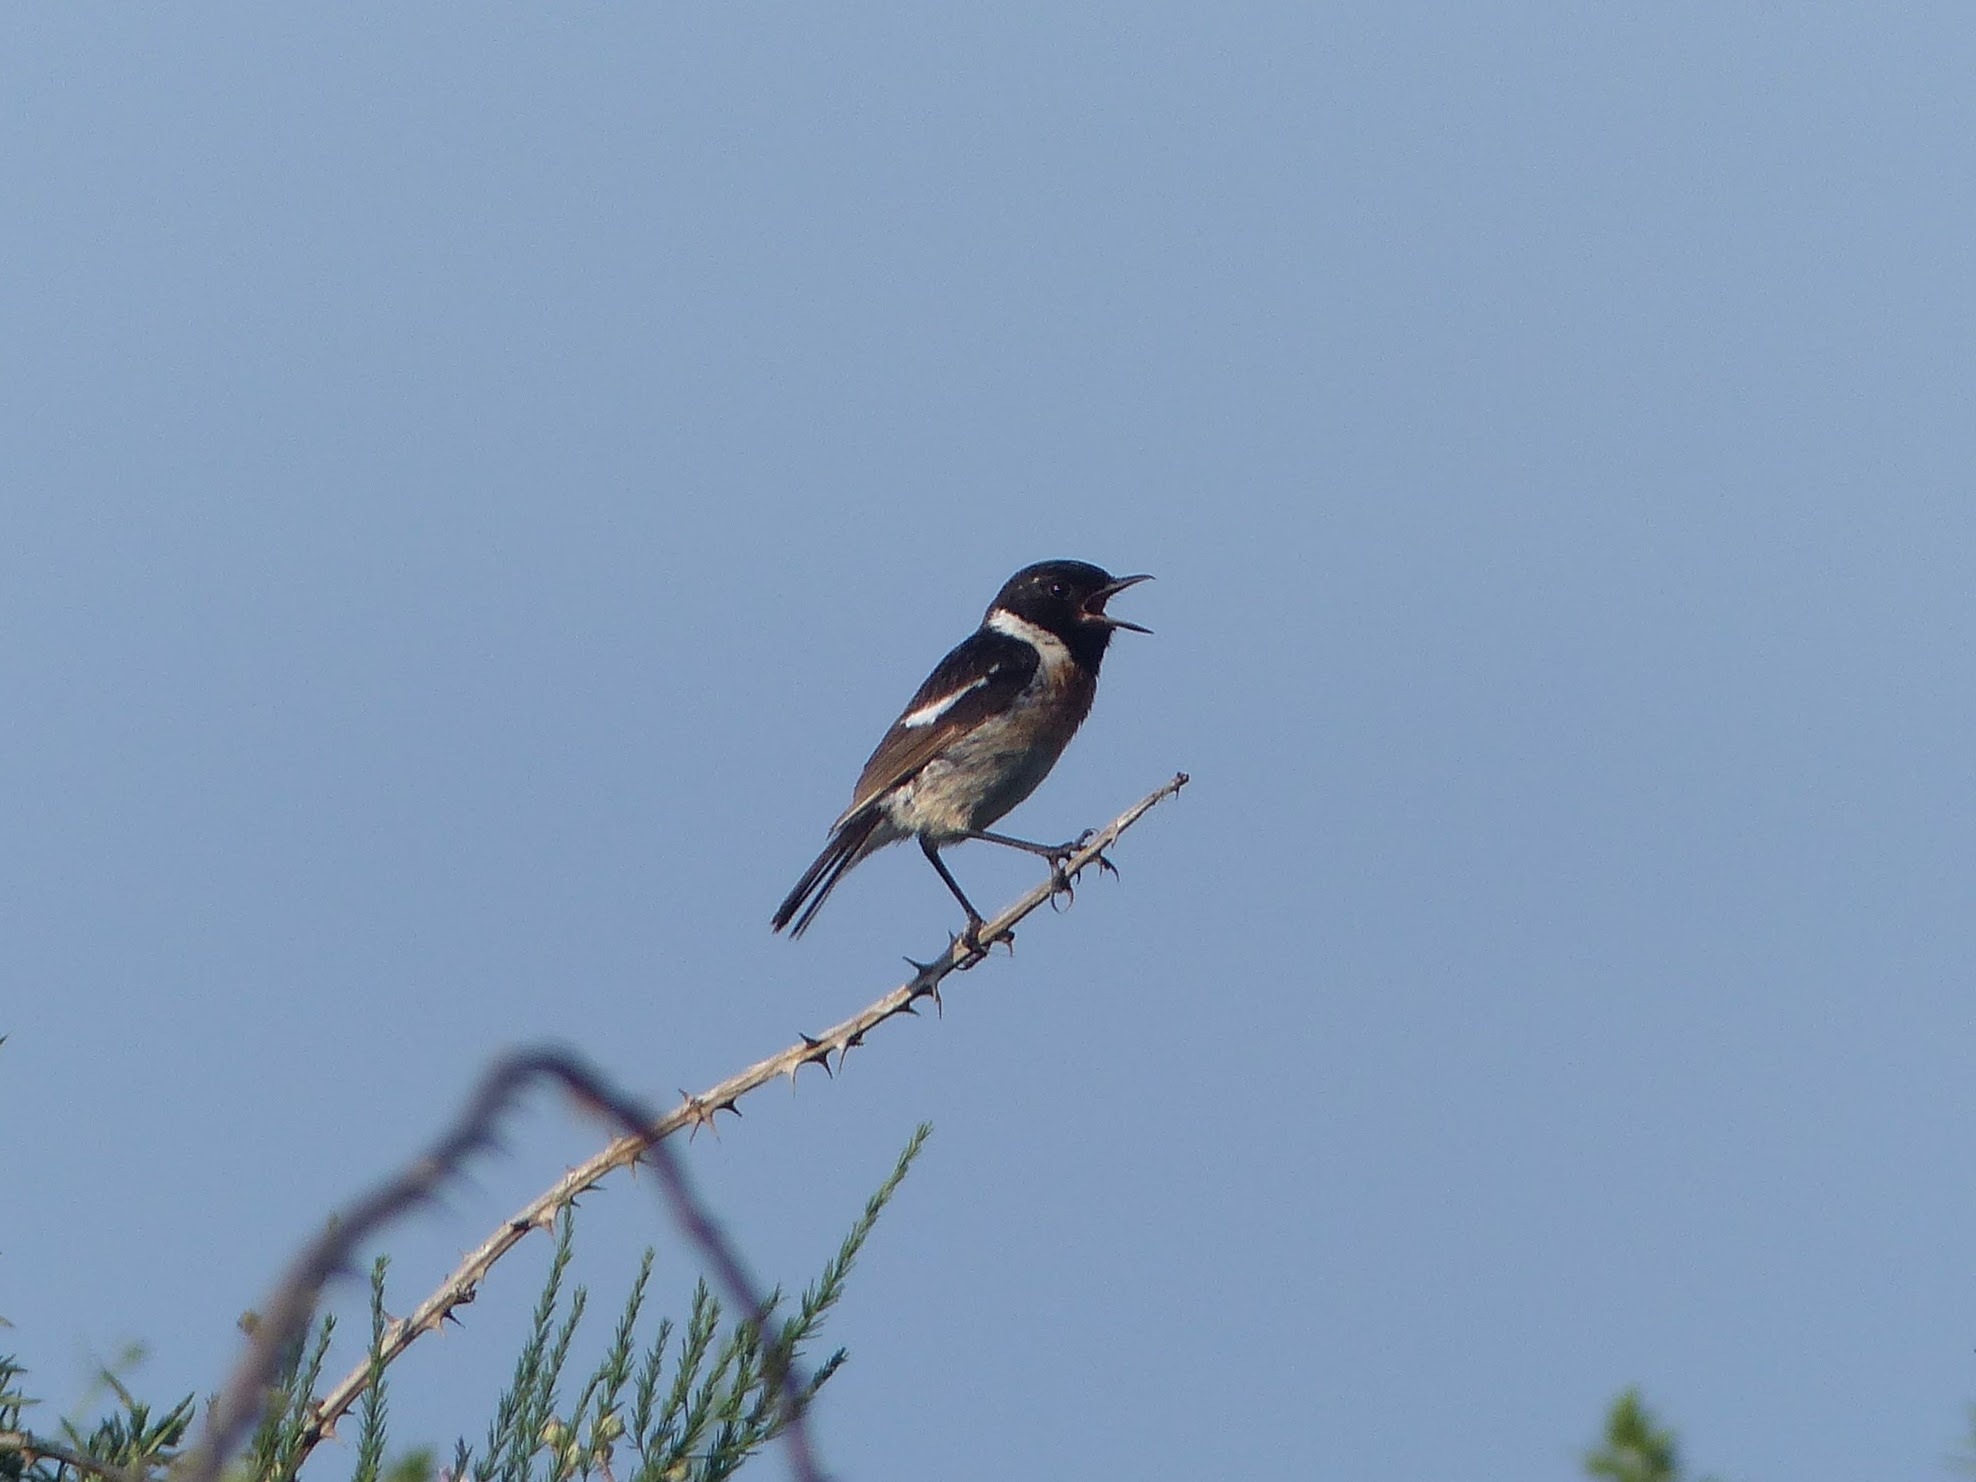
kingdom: Animalia
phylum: Chordata
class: Aves
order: Passeriformes
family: Muscicapidae
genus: Saxicola
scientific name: Saxicola rubicola
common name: European stonechat
